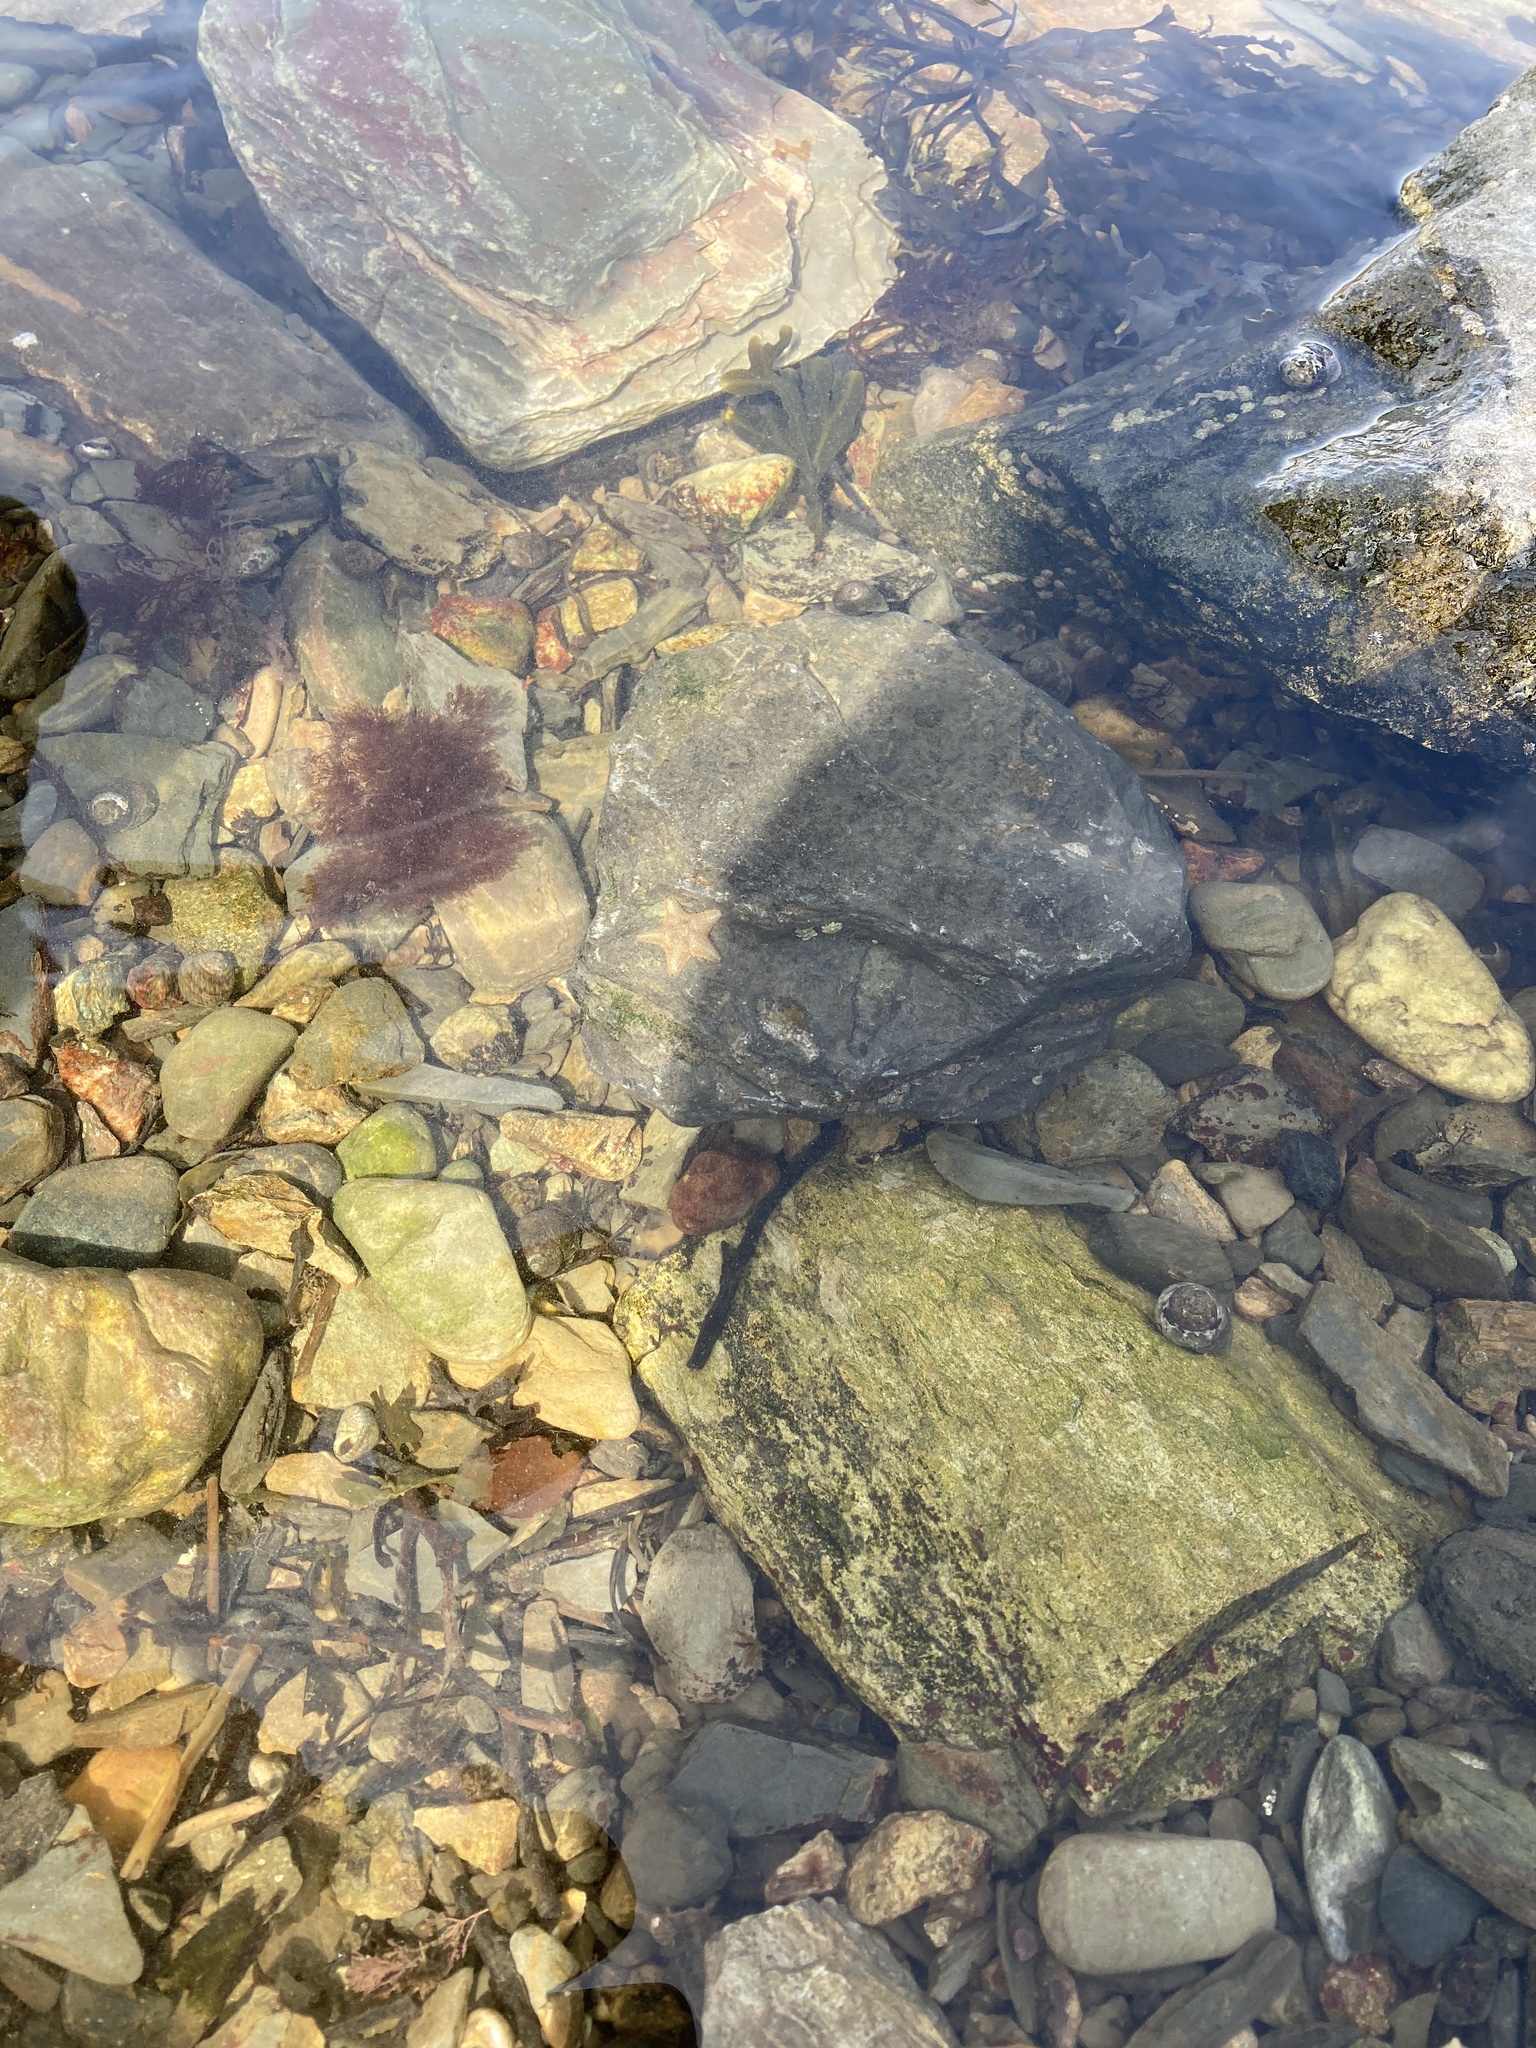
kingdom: Animalia
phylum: Echinodermata
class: Asteroidea
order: Valvatida
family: Asterinidae
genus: Asterina
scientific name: Asterina gibbosa
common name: Cushion star
